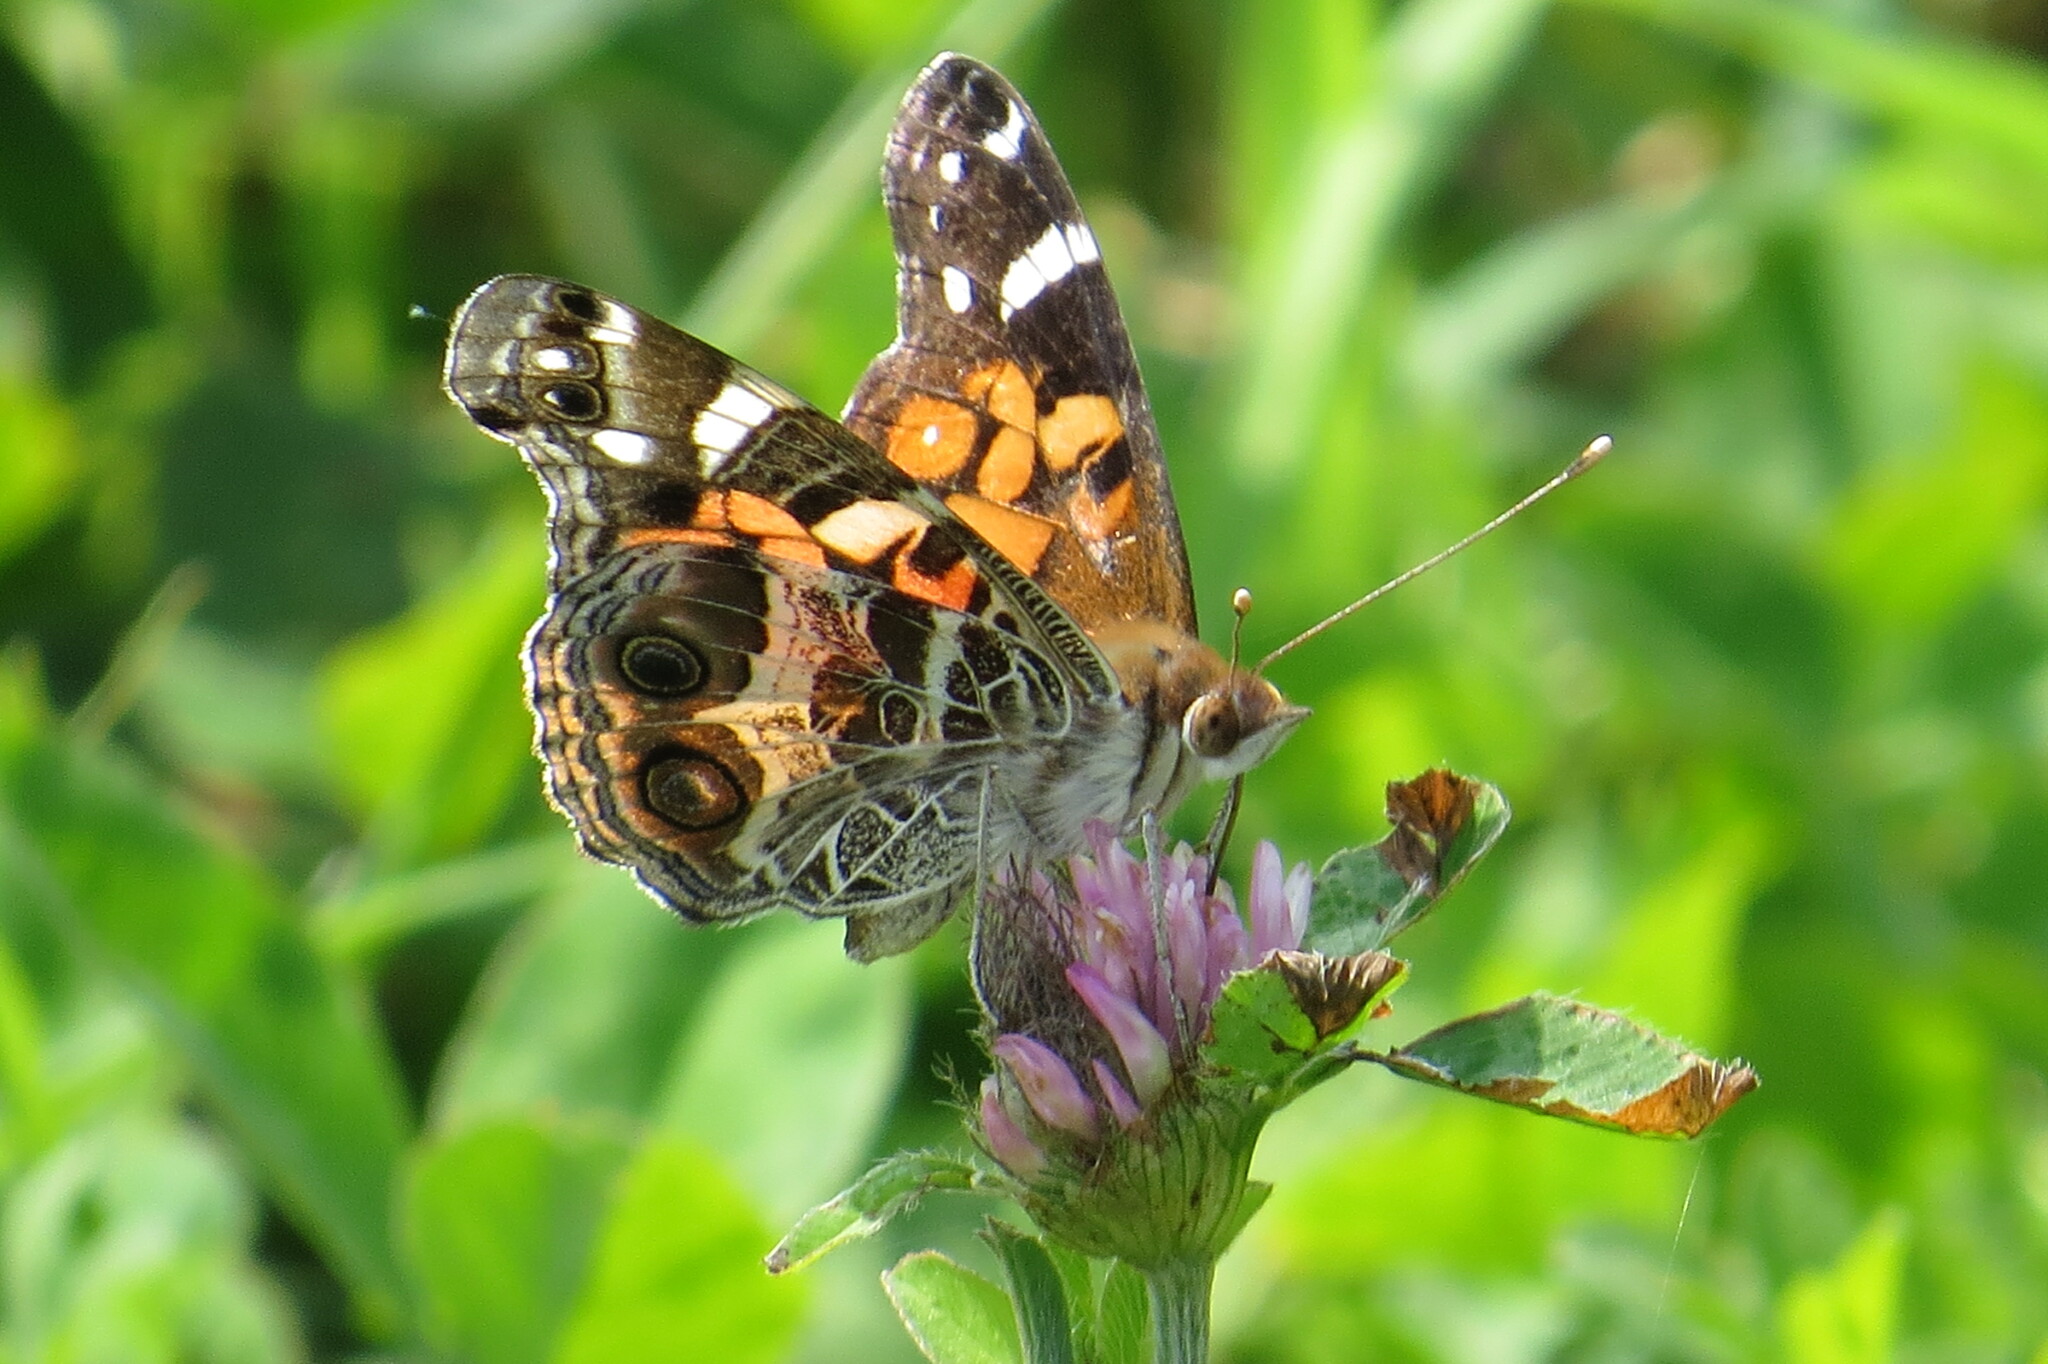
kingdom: Animalia
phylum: Arthropoda
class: Insecta
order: Lepidoptera
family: Nymphalidae
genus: Vanessa
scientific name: Vanessa virginiensis
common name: American lady
